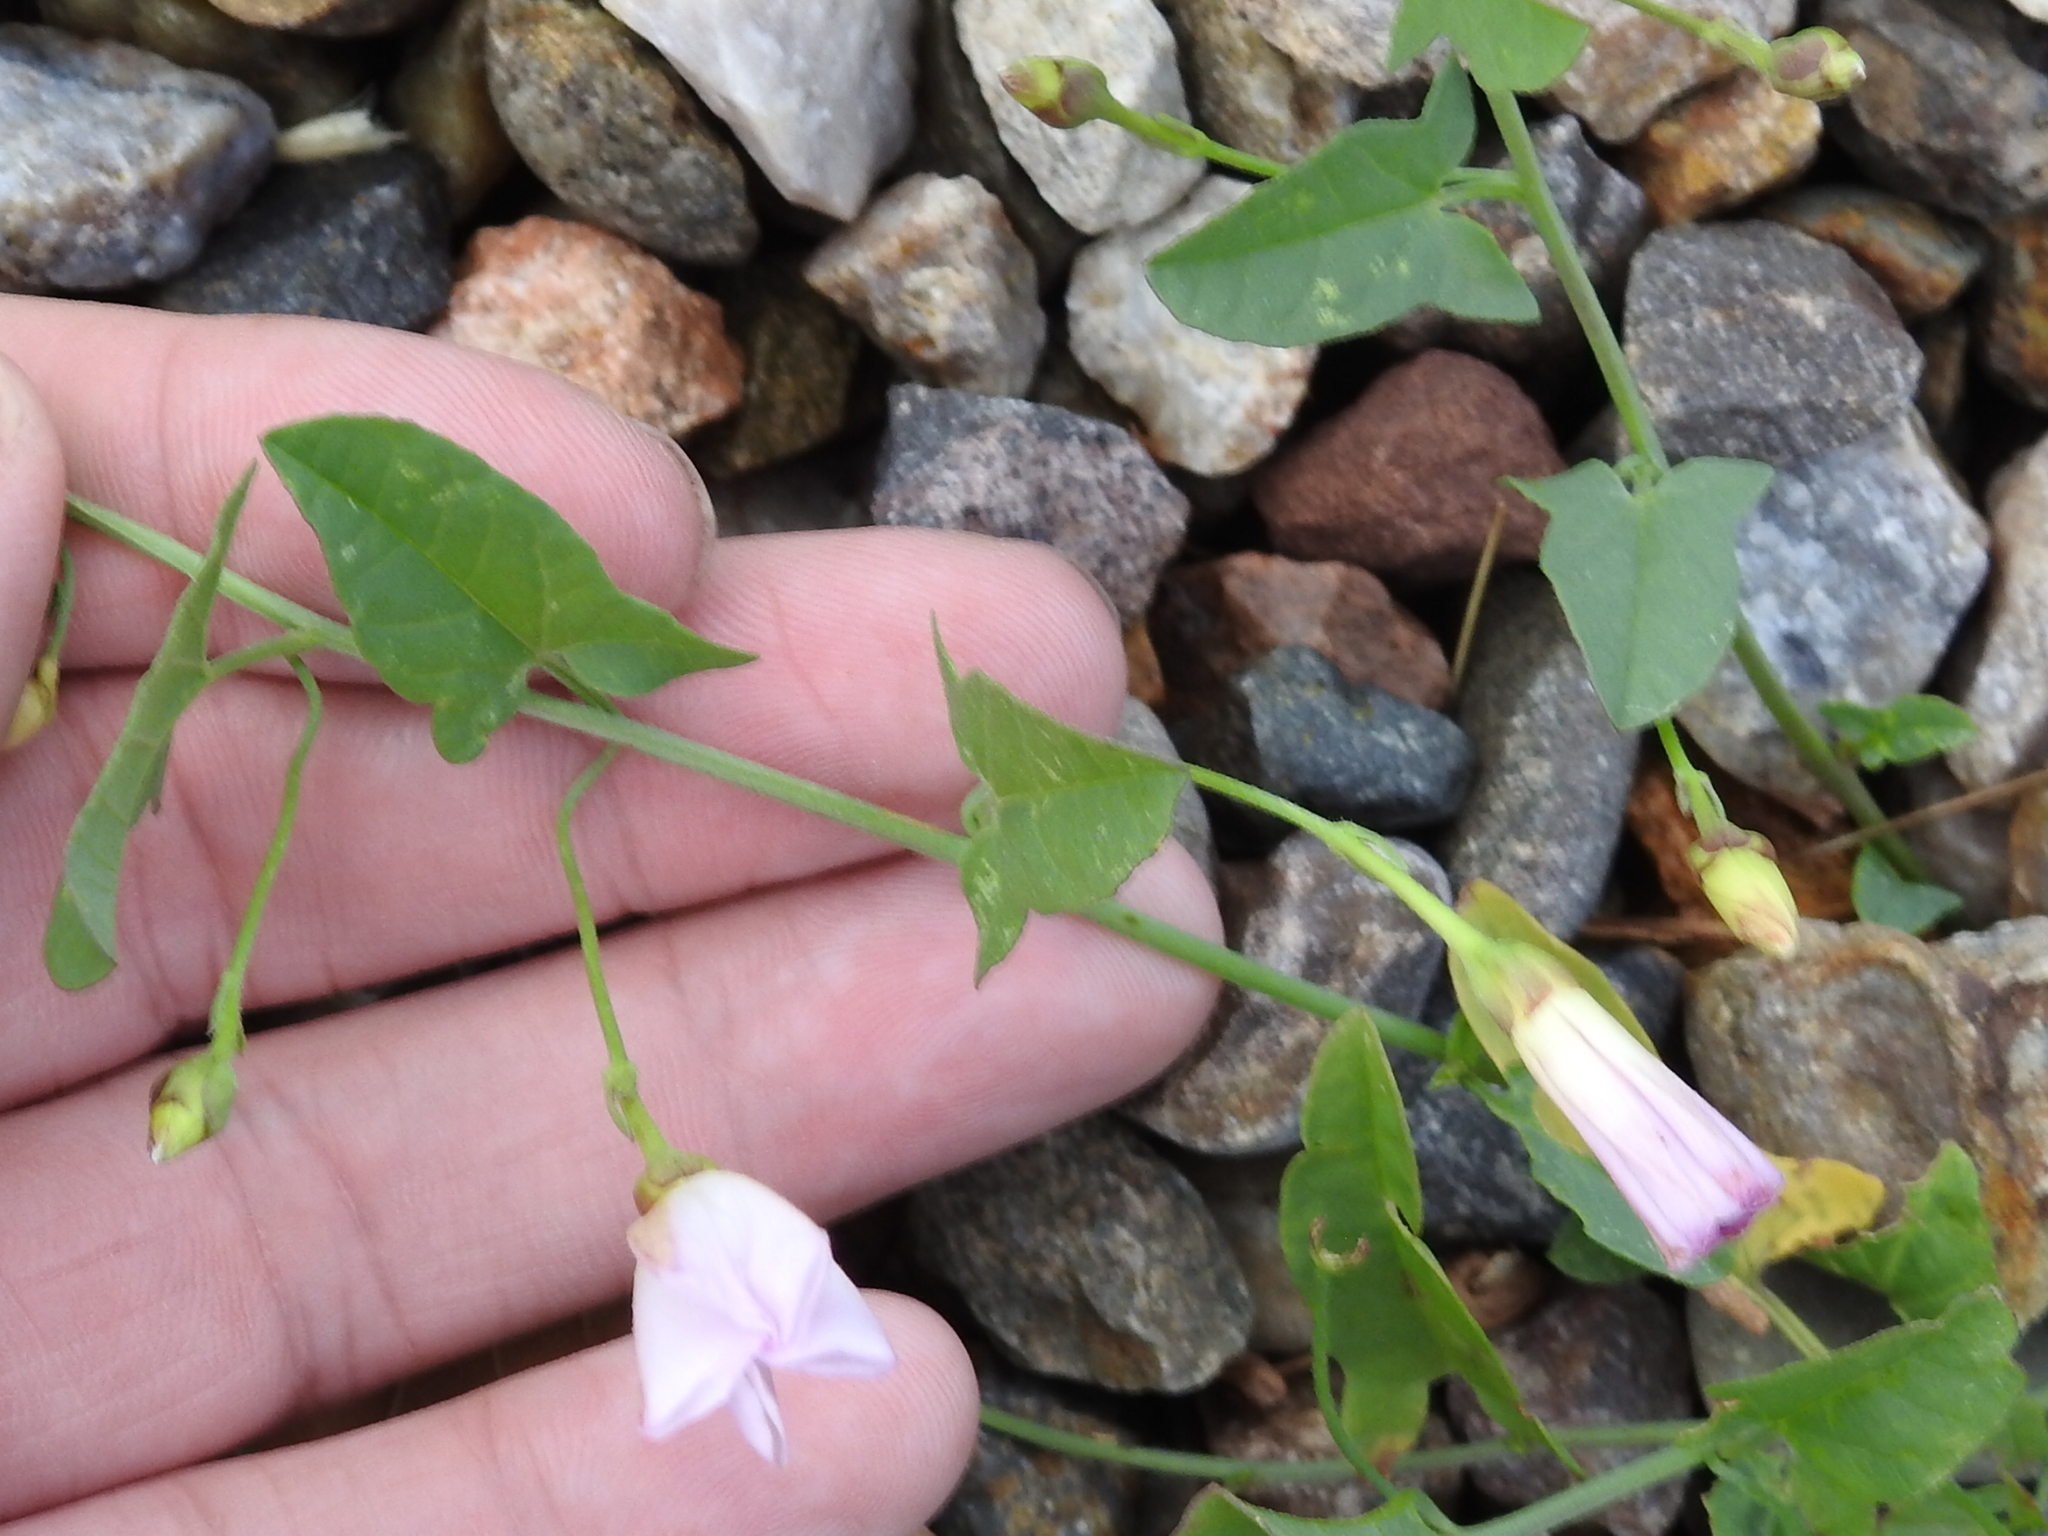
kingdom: Plantae
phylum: Tracheophyta
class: Magnoliopsida
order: Solanales
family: Convolvulaceae
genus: Convolvulus
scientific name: Convolvulus arvensis
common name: Field bindweed
